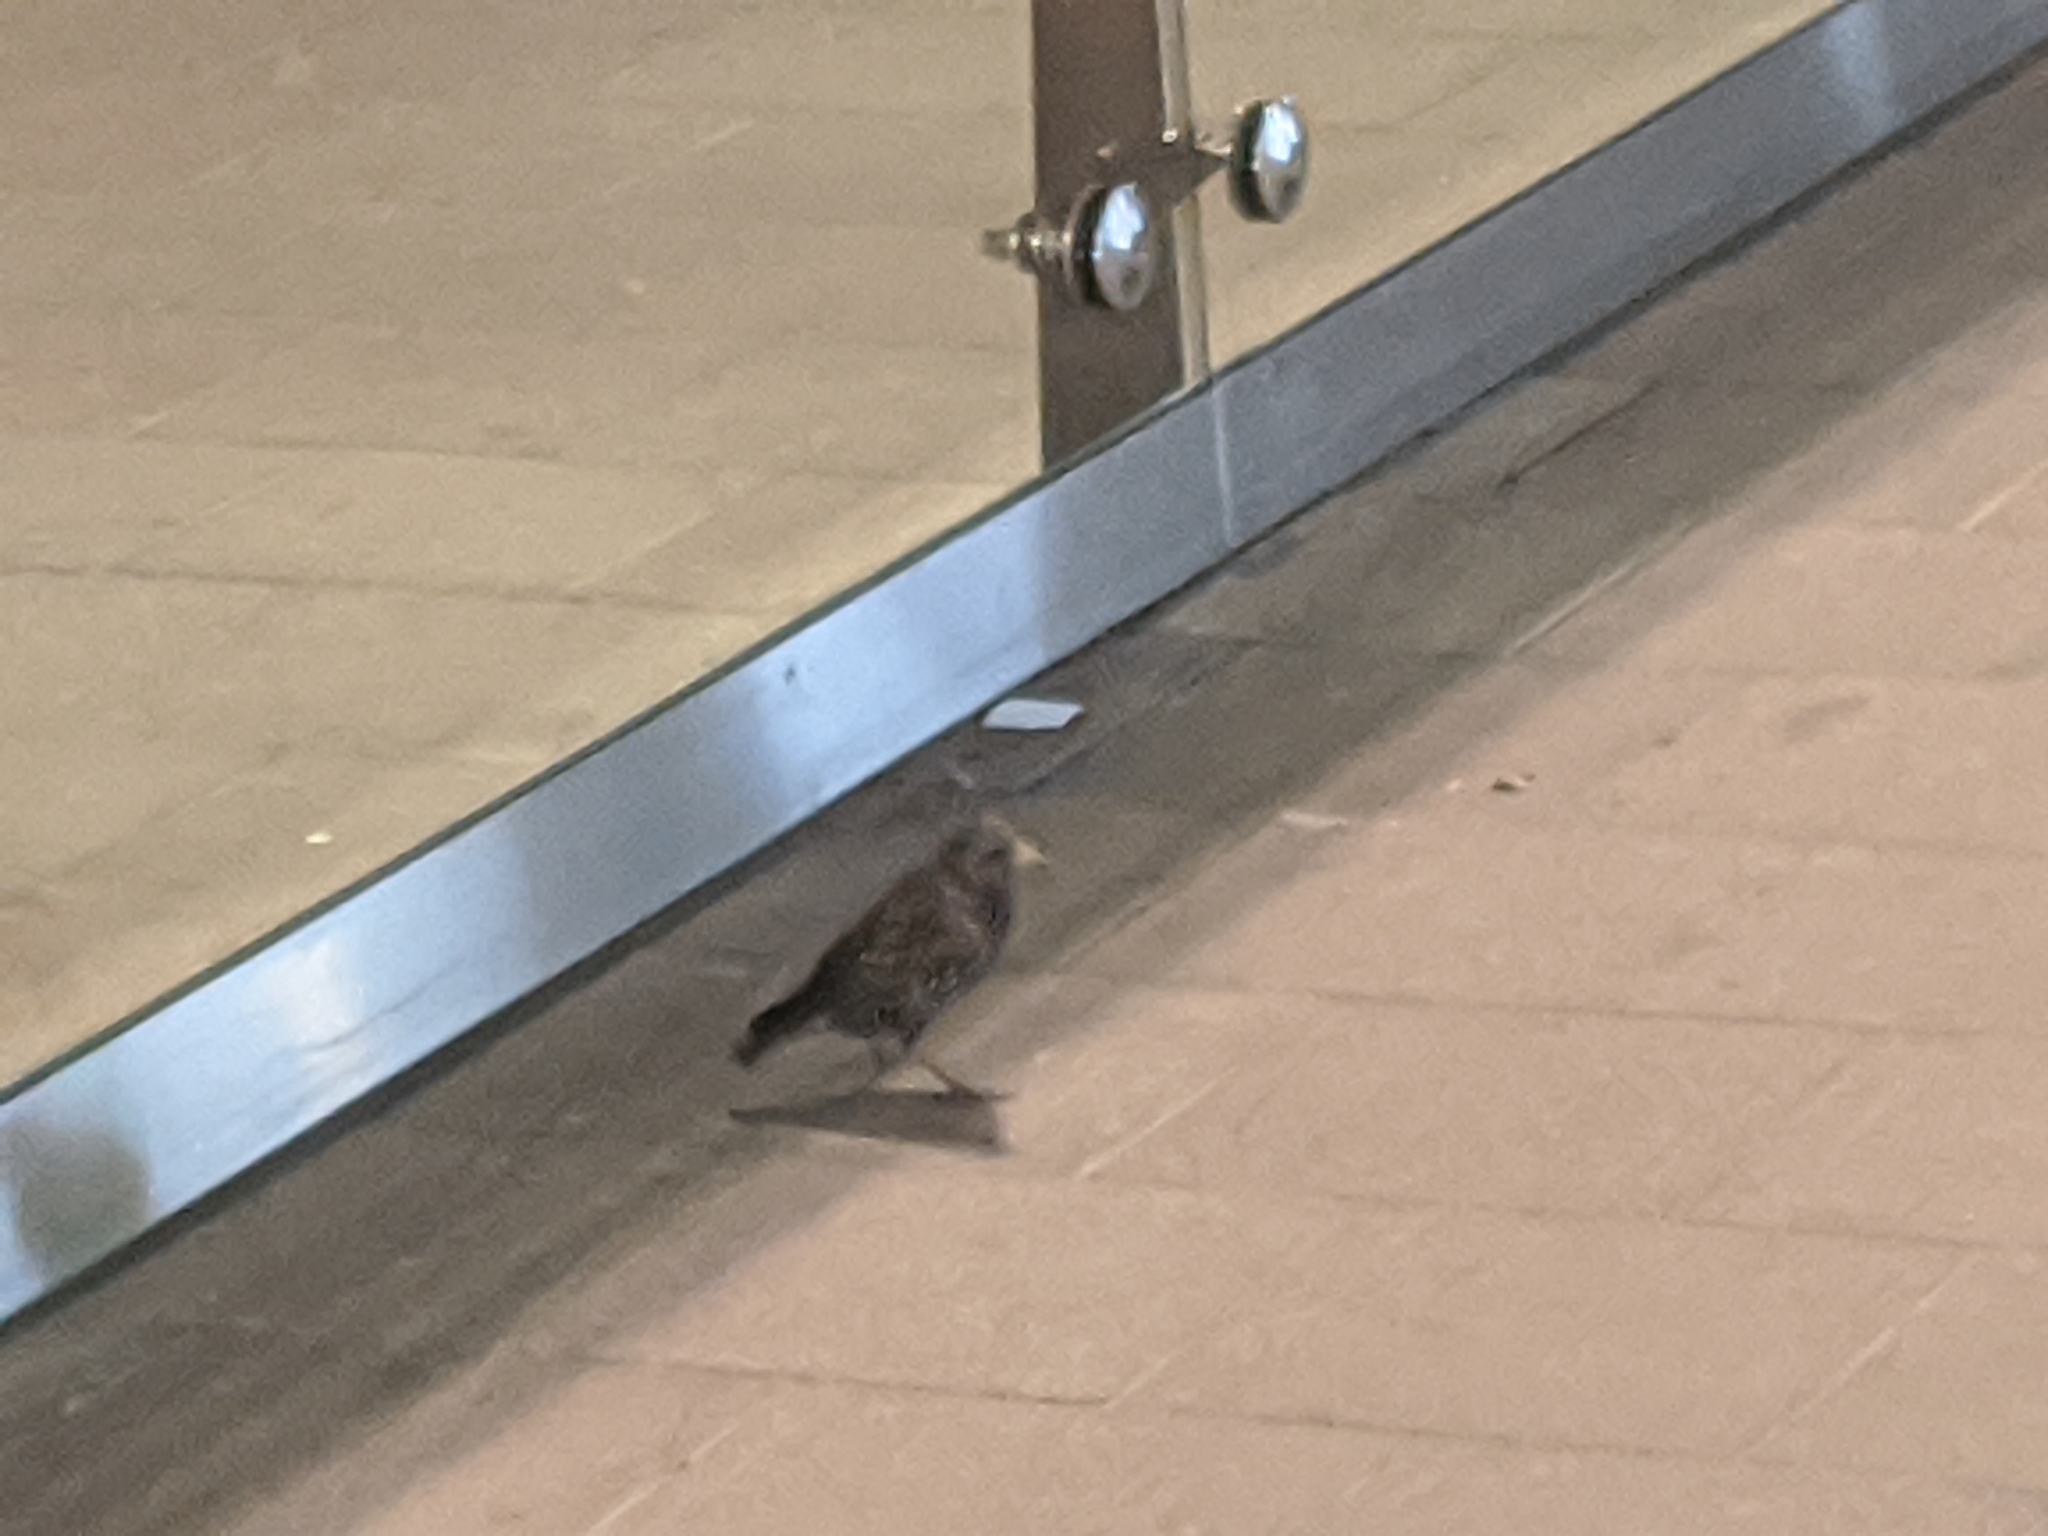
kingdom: Animalia
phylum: Chordata
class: Aves
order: Passeriformes
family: Sturnidae
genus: Sturnus
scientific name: Sturnus vulgaris
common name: Common starling
